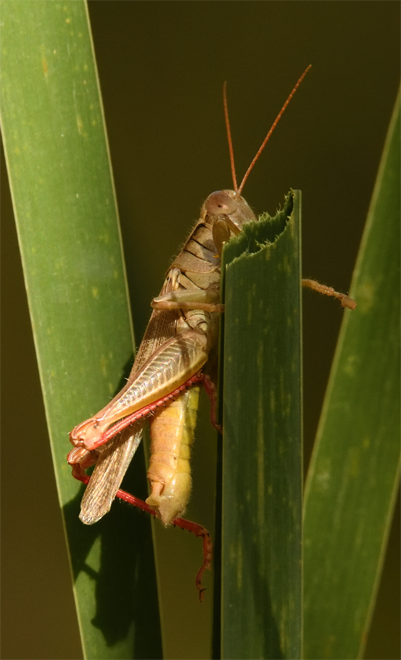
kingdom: Animalia
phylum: Arthropoda
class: Insecta
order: Orthoptera
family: Acrididae
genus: Melanoplus
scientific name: Melanoplus yarrowii
